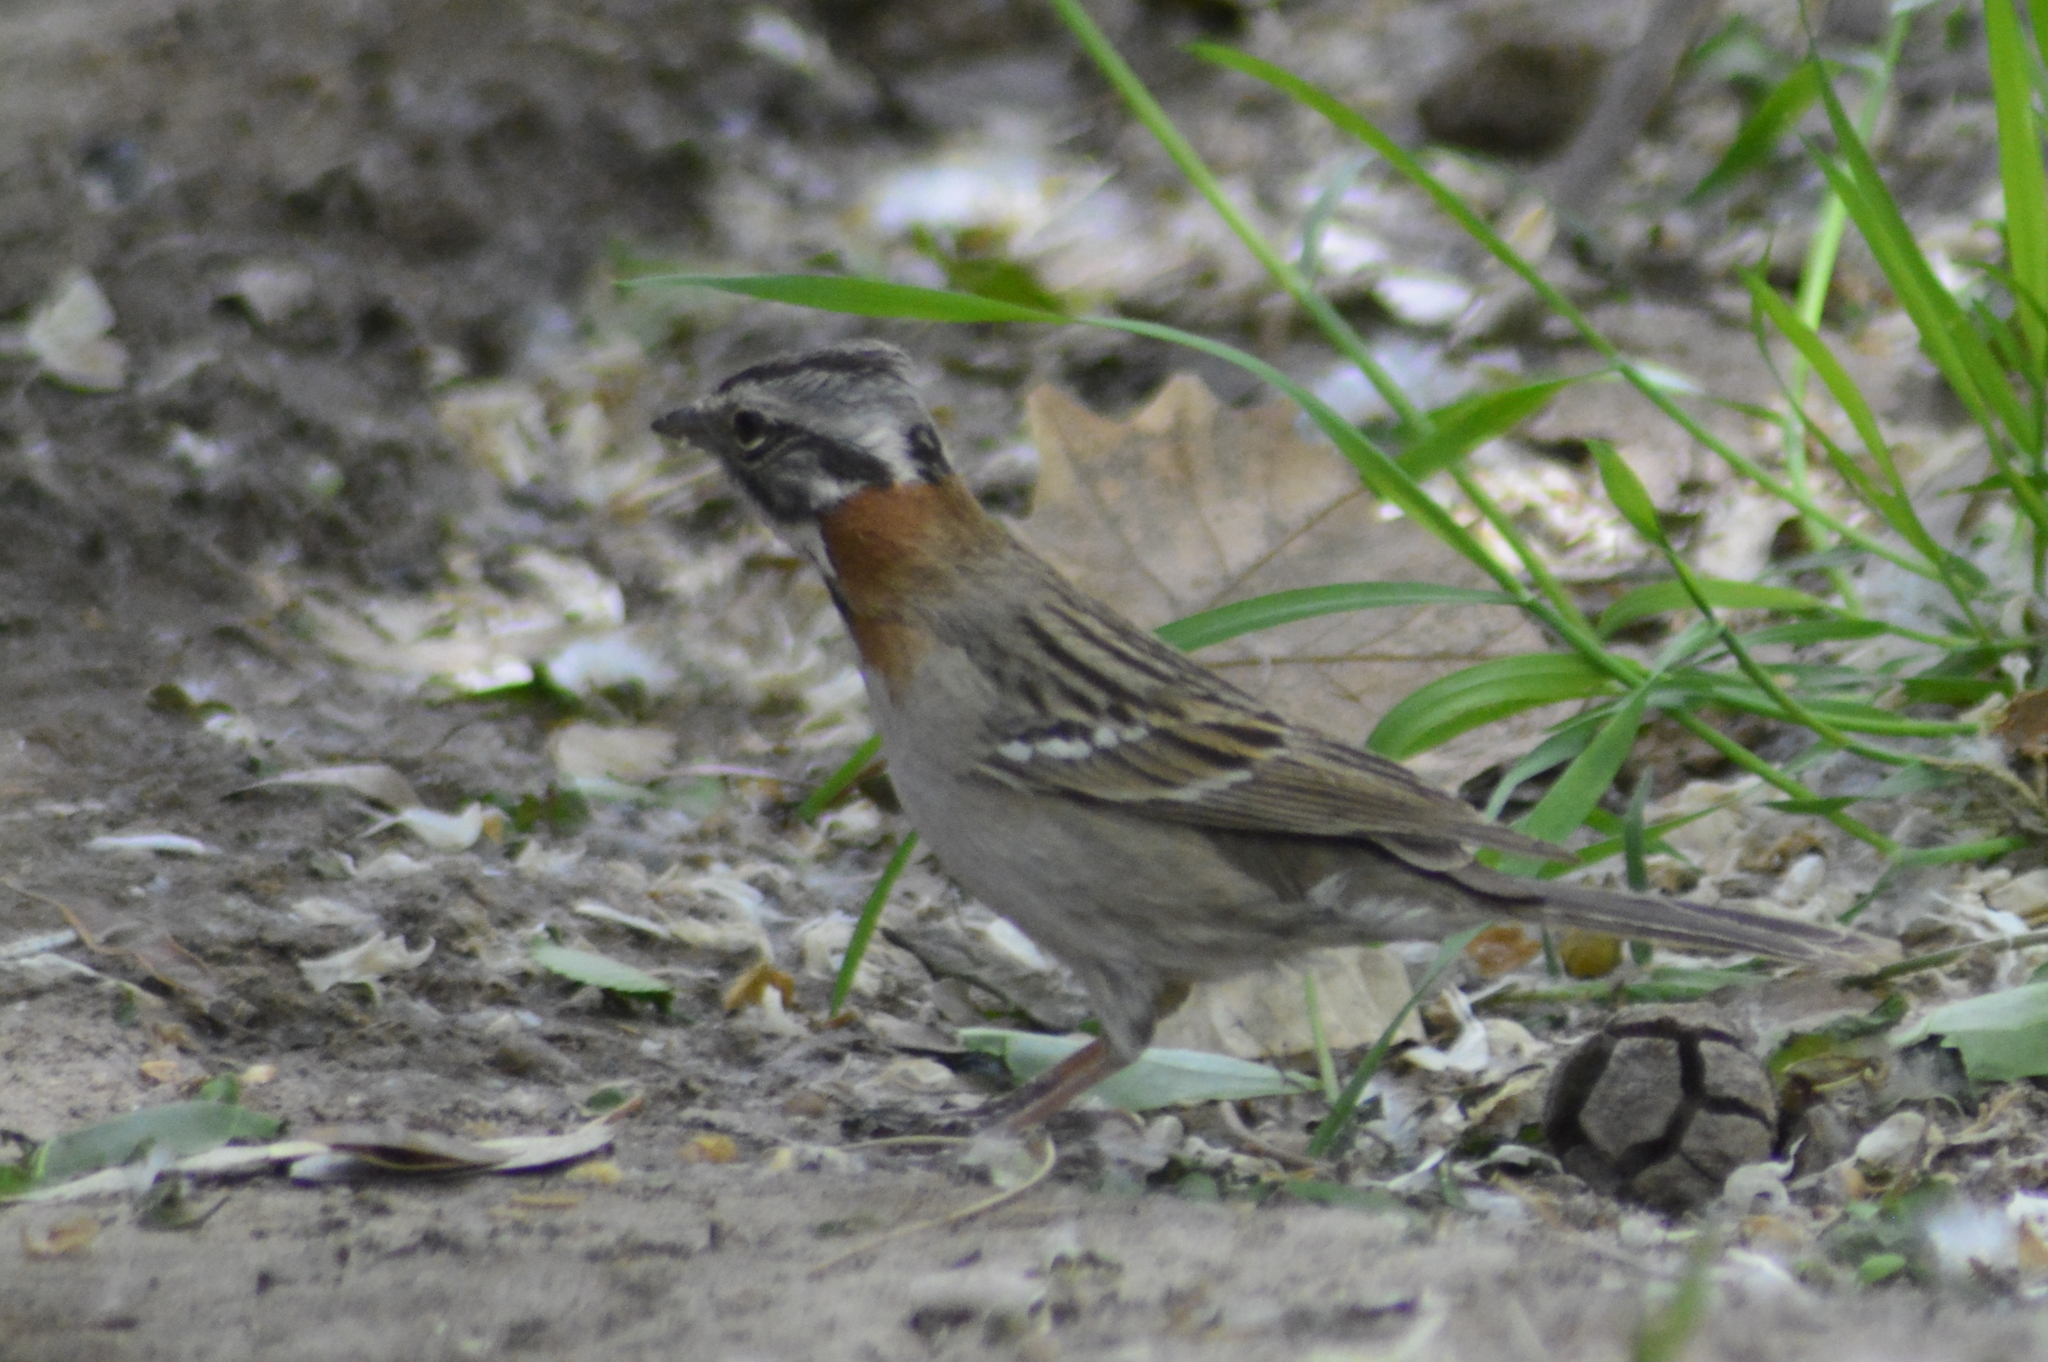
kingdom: Animalia
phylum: Chordata
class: Aves
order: Passeriformes
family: Passerellidae
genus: Zonotrichia
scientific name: Zonotrichia capensis
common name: Rufous-collared sparrow
